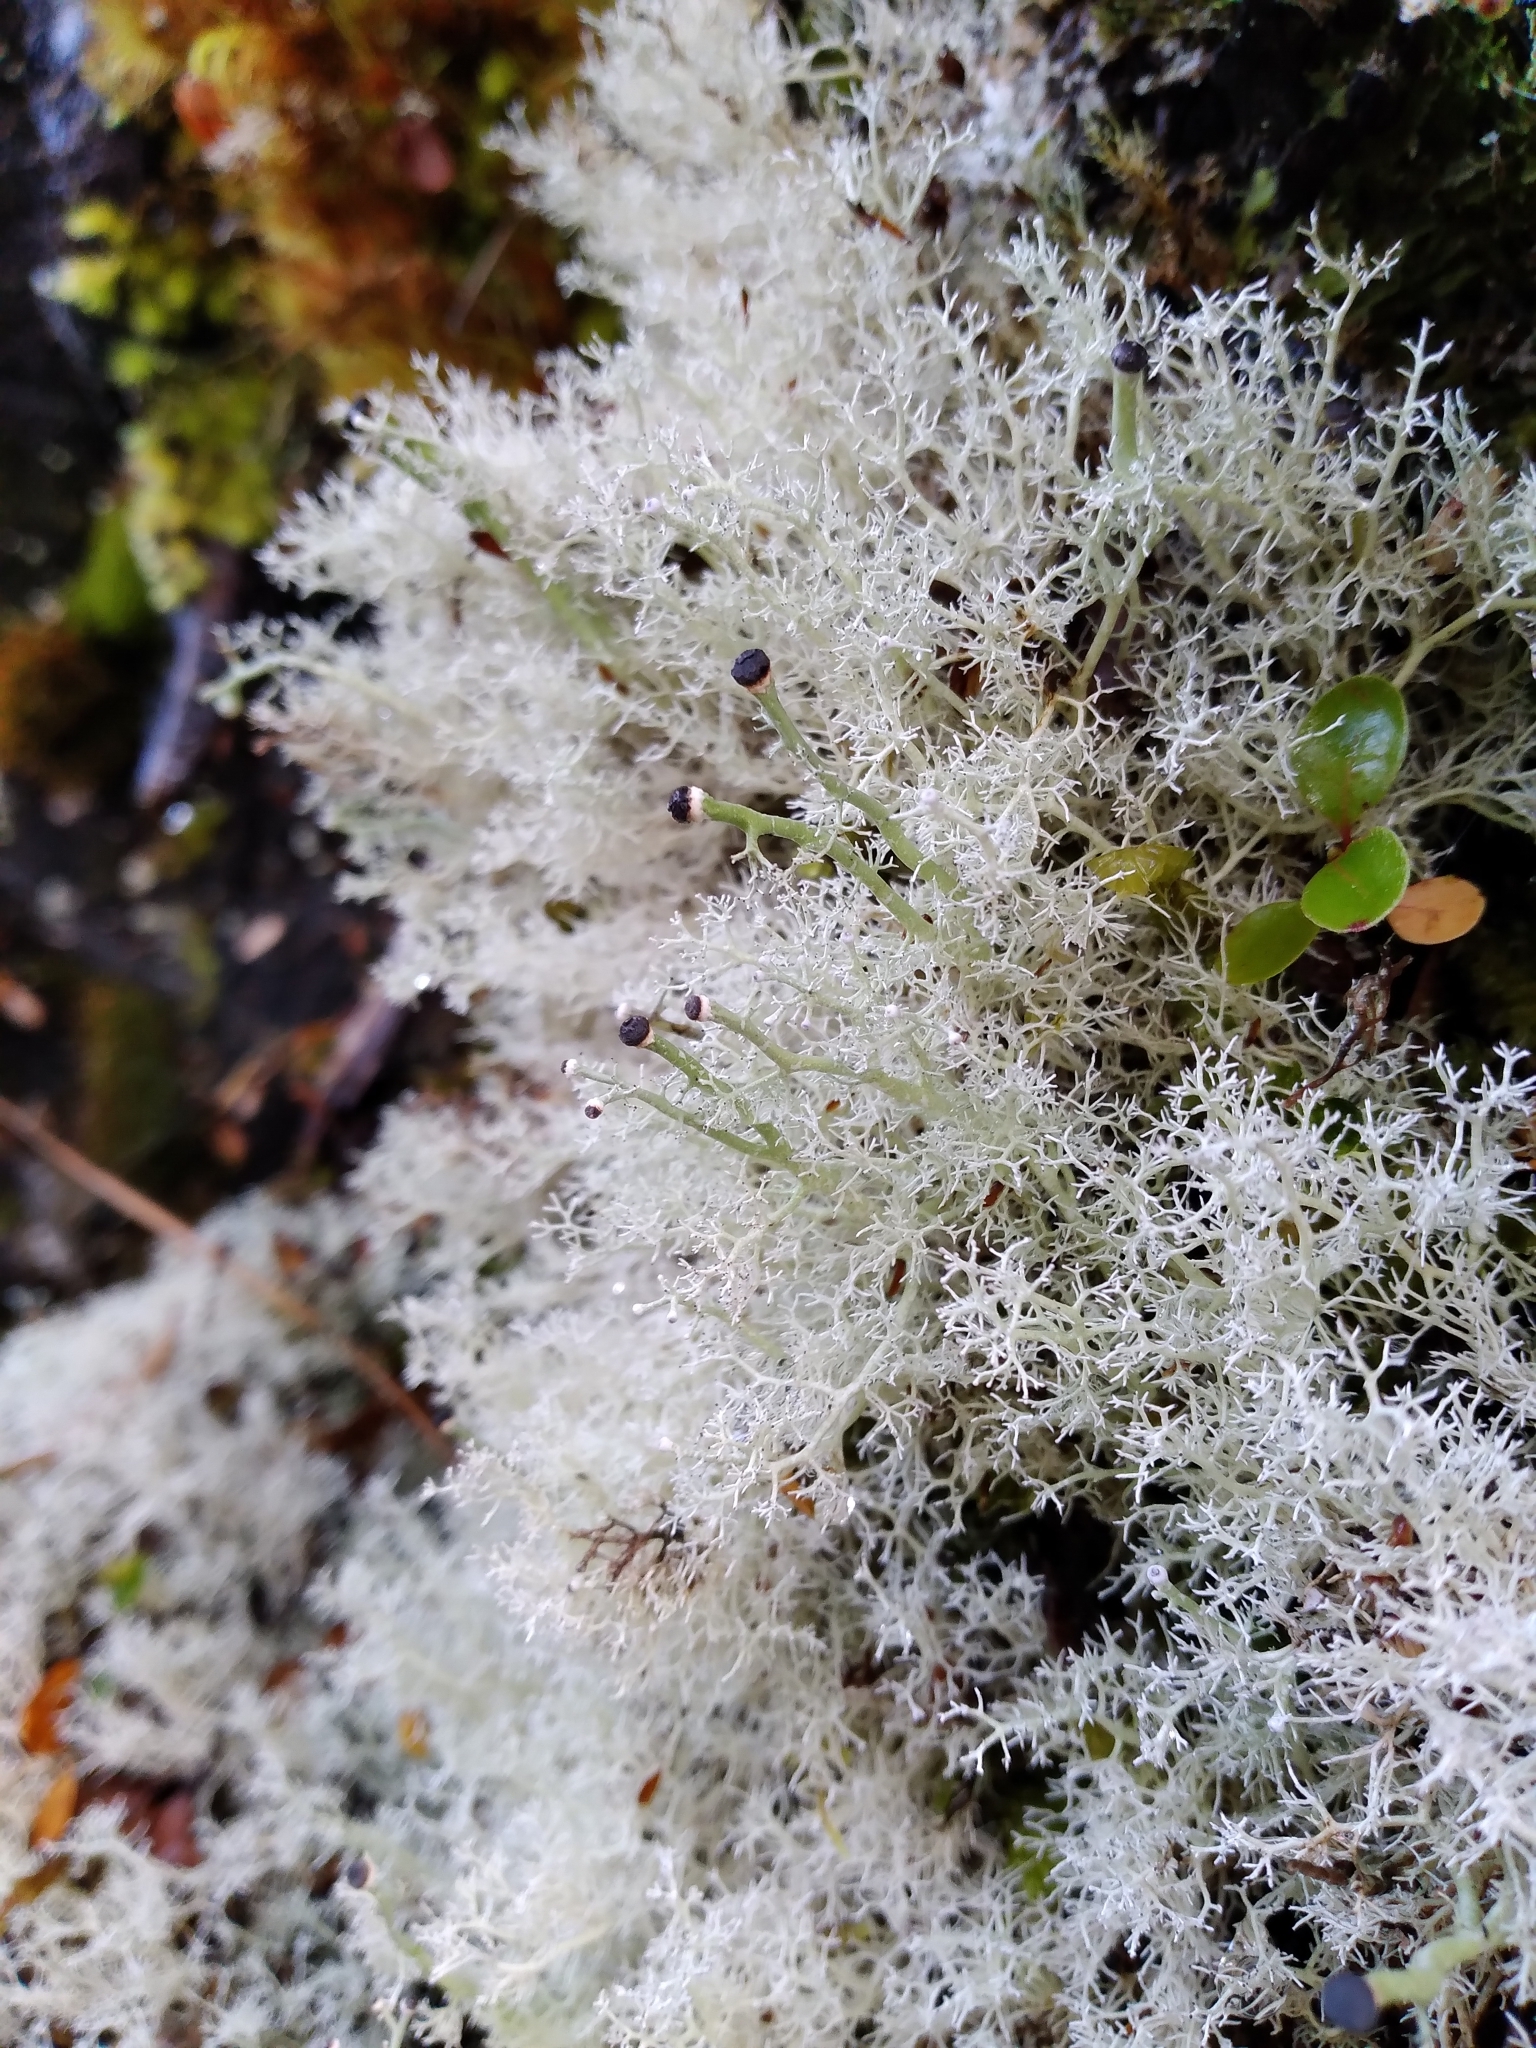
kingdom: Fungi
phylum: Ascomycota
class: Lecanoromycetes
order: Lecanorales
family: Sphaerophoraceae
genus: Leifidium
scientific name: Leifidium tenerum
